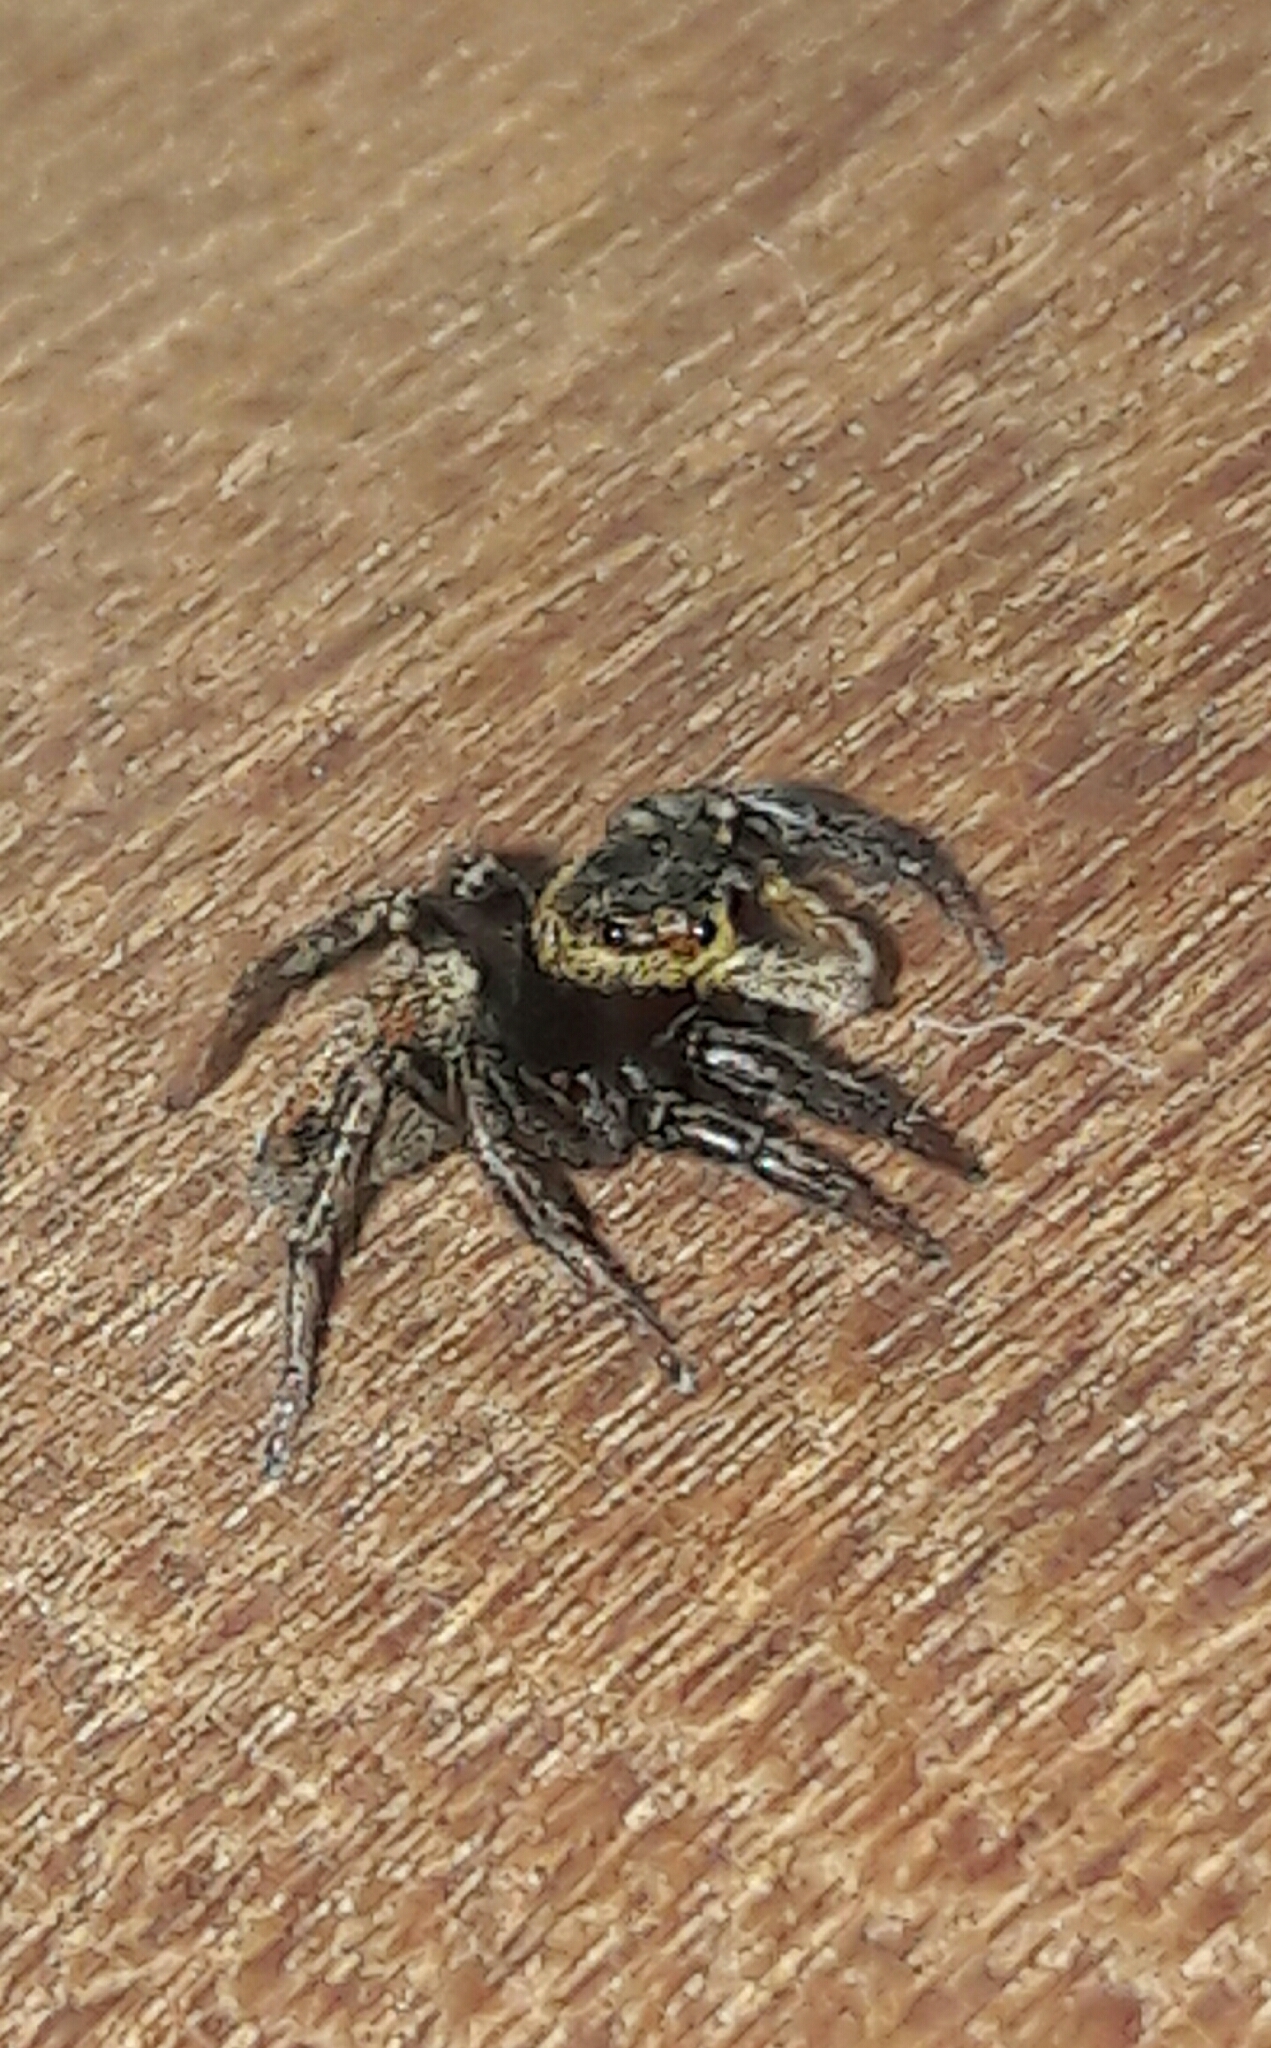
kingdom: Animalia
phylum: Arthropoda
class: Arachnida
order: Araneae
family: Salticidae
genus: Hasarius
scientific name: Hasarius adansoni
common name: Jumping spider
